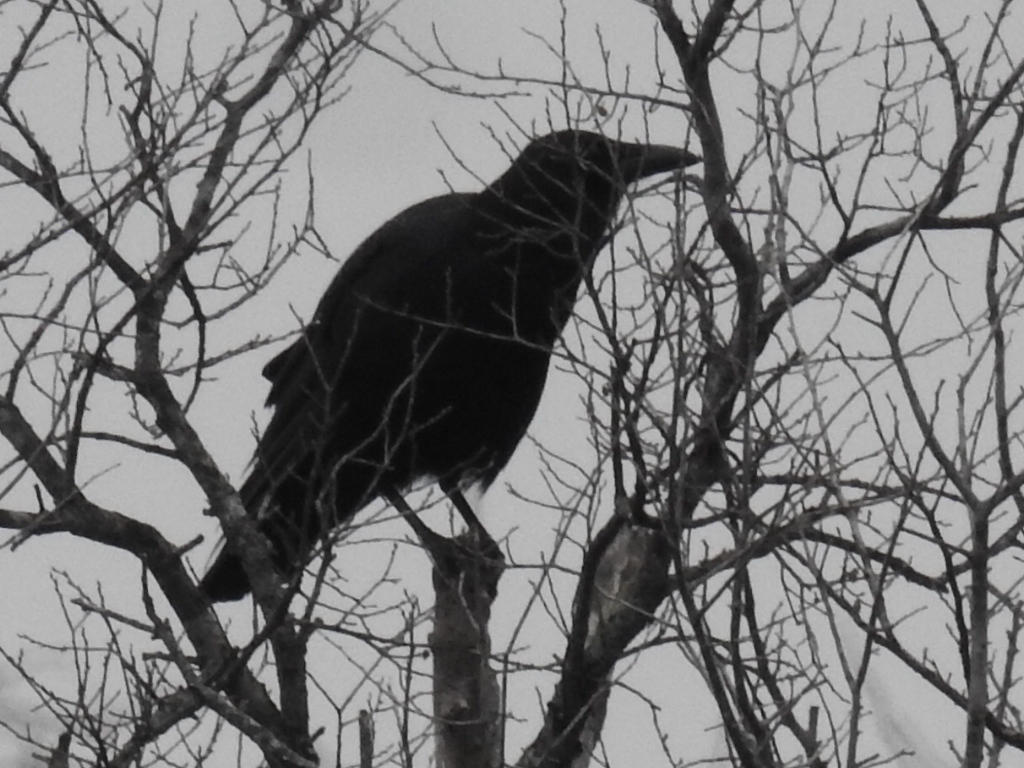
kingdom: Animalia
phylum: Chordata
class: Aves
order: Passeriformes
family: Corvidae
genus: Corvus
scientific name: Corvus brachyrhynchos
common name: American crow
